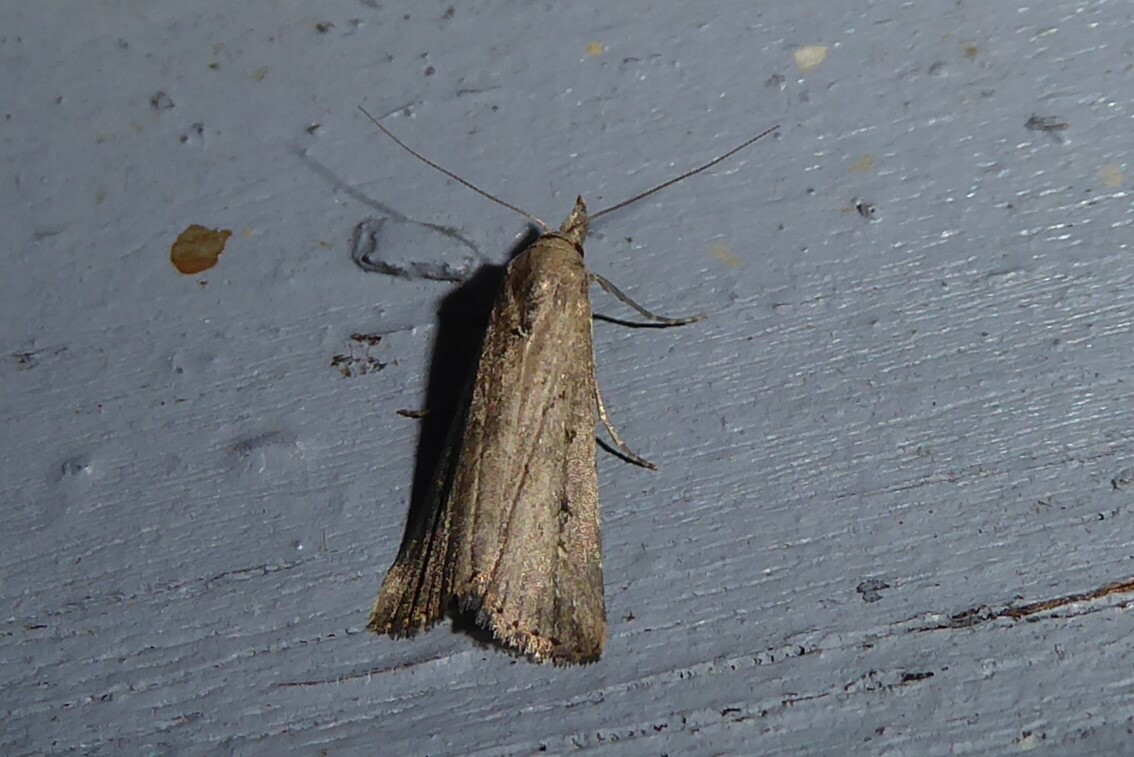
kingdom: Animalia
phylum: Arthropoda
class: Insecta
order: Lepidoptera
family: Erebidae
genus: Schrankia
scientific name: Schrankia costaestrigalis
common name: Pinion-streaked snout
